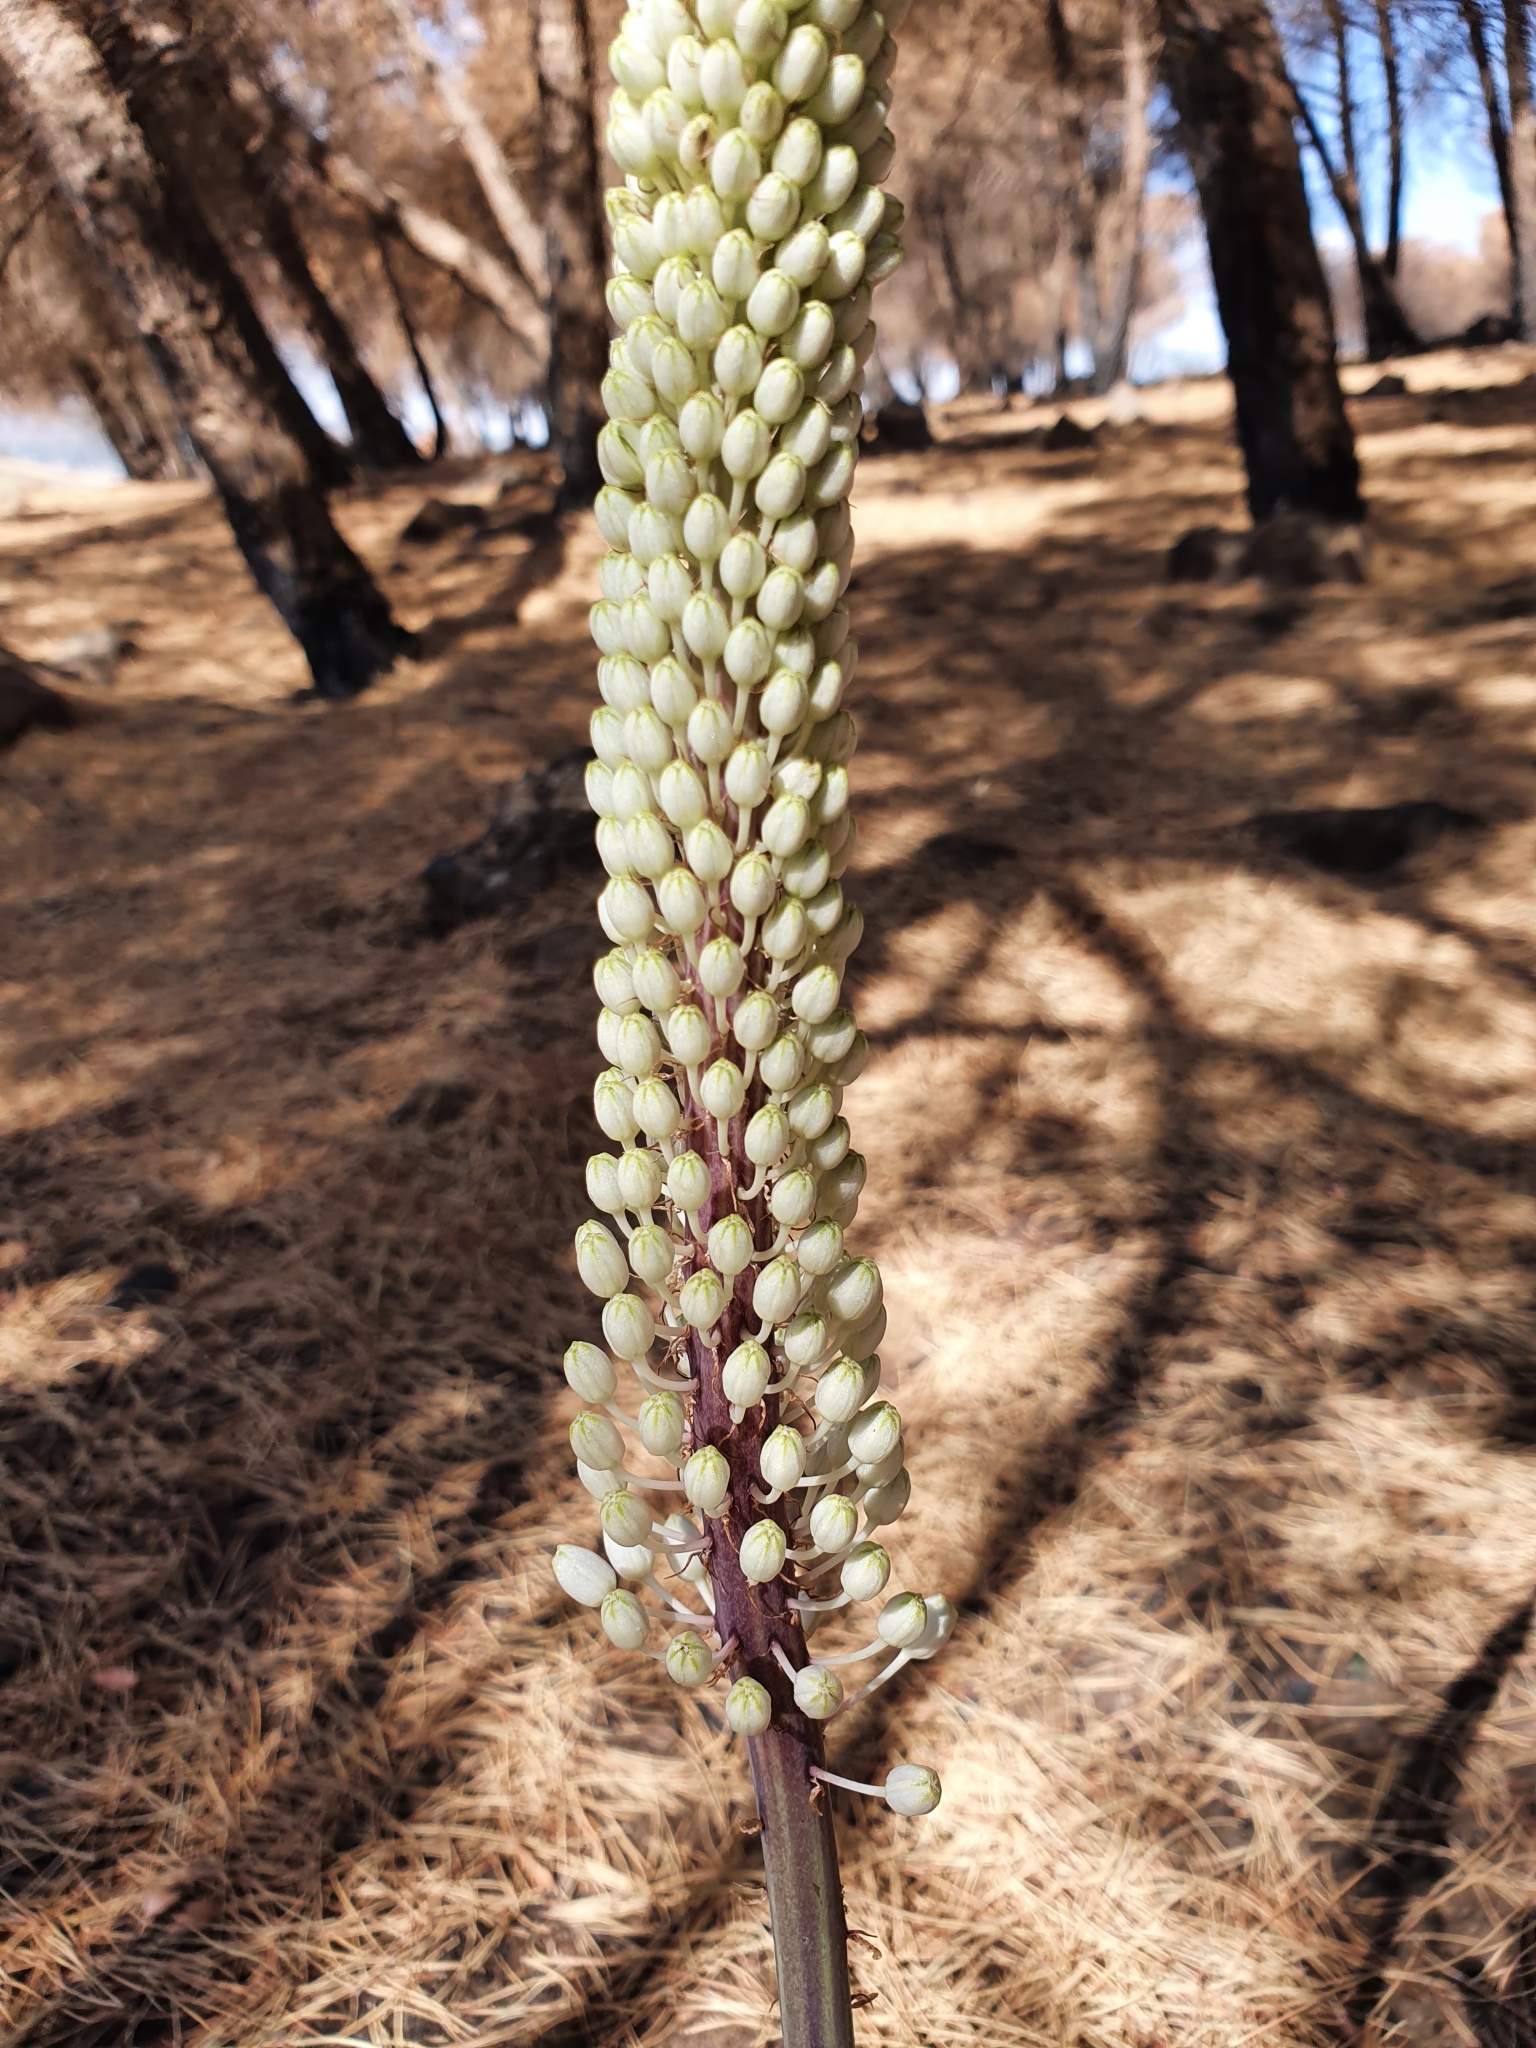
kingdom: Plantae
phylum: Tracheophyta
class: Liliopsida
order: Asparagales
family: Asparagaceae
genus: Drimia
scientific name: Drimia numidica
